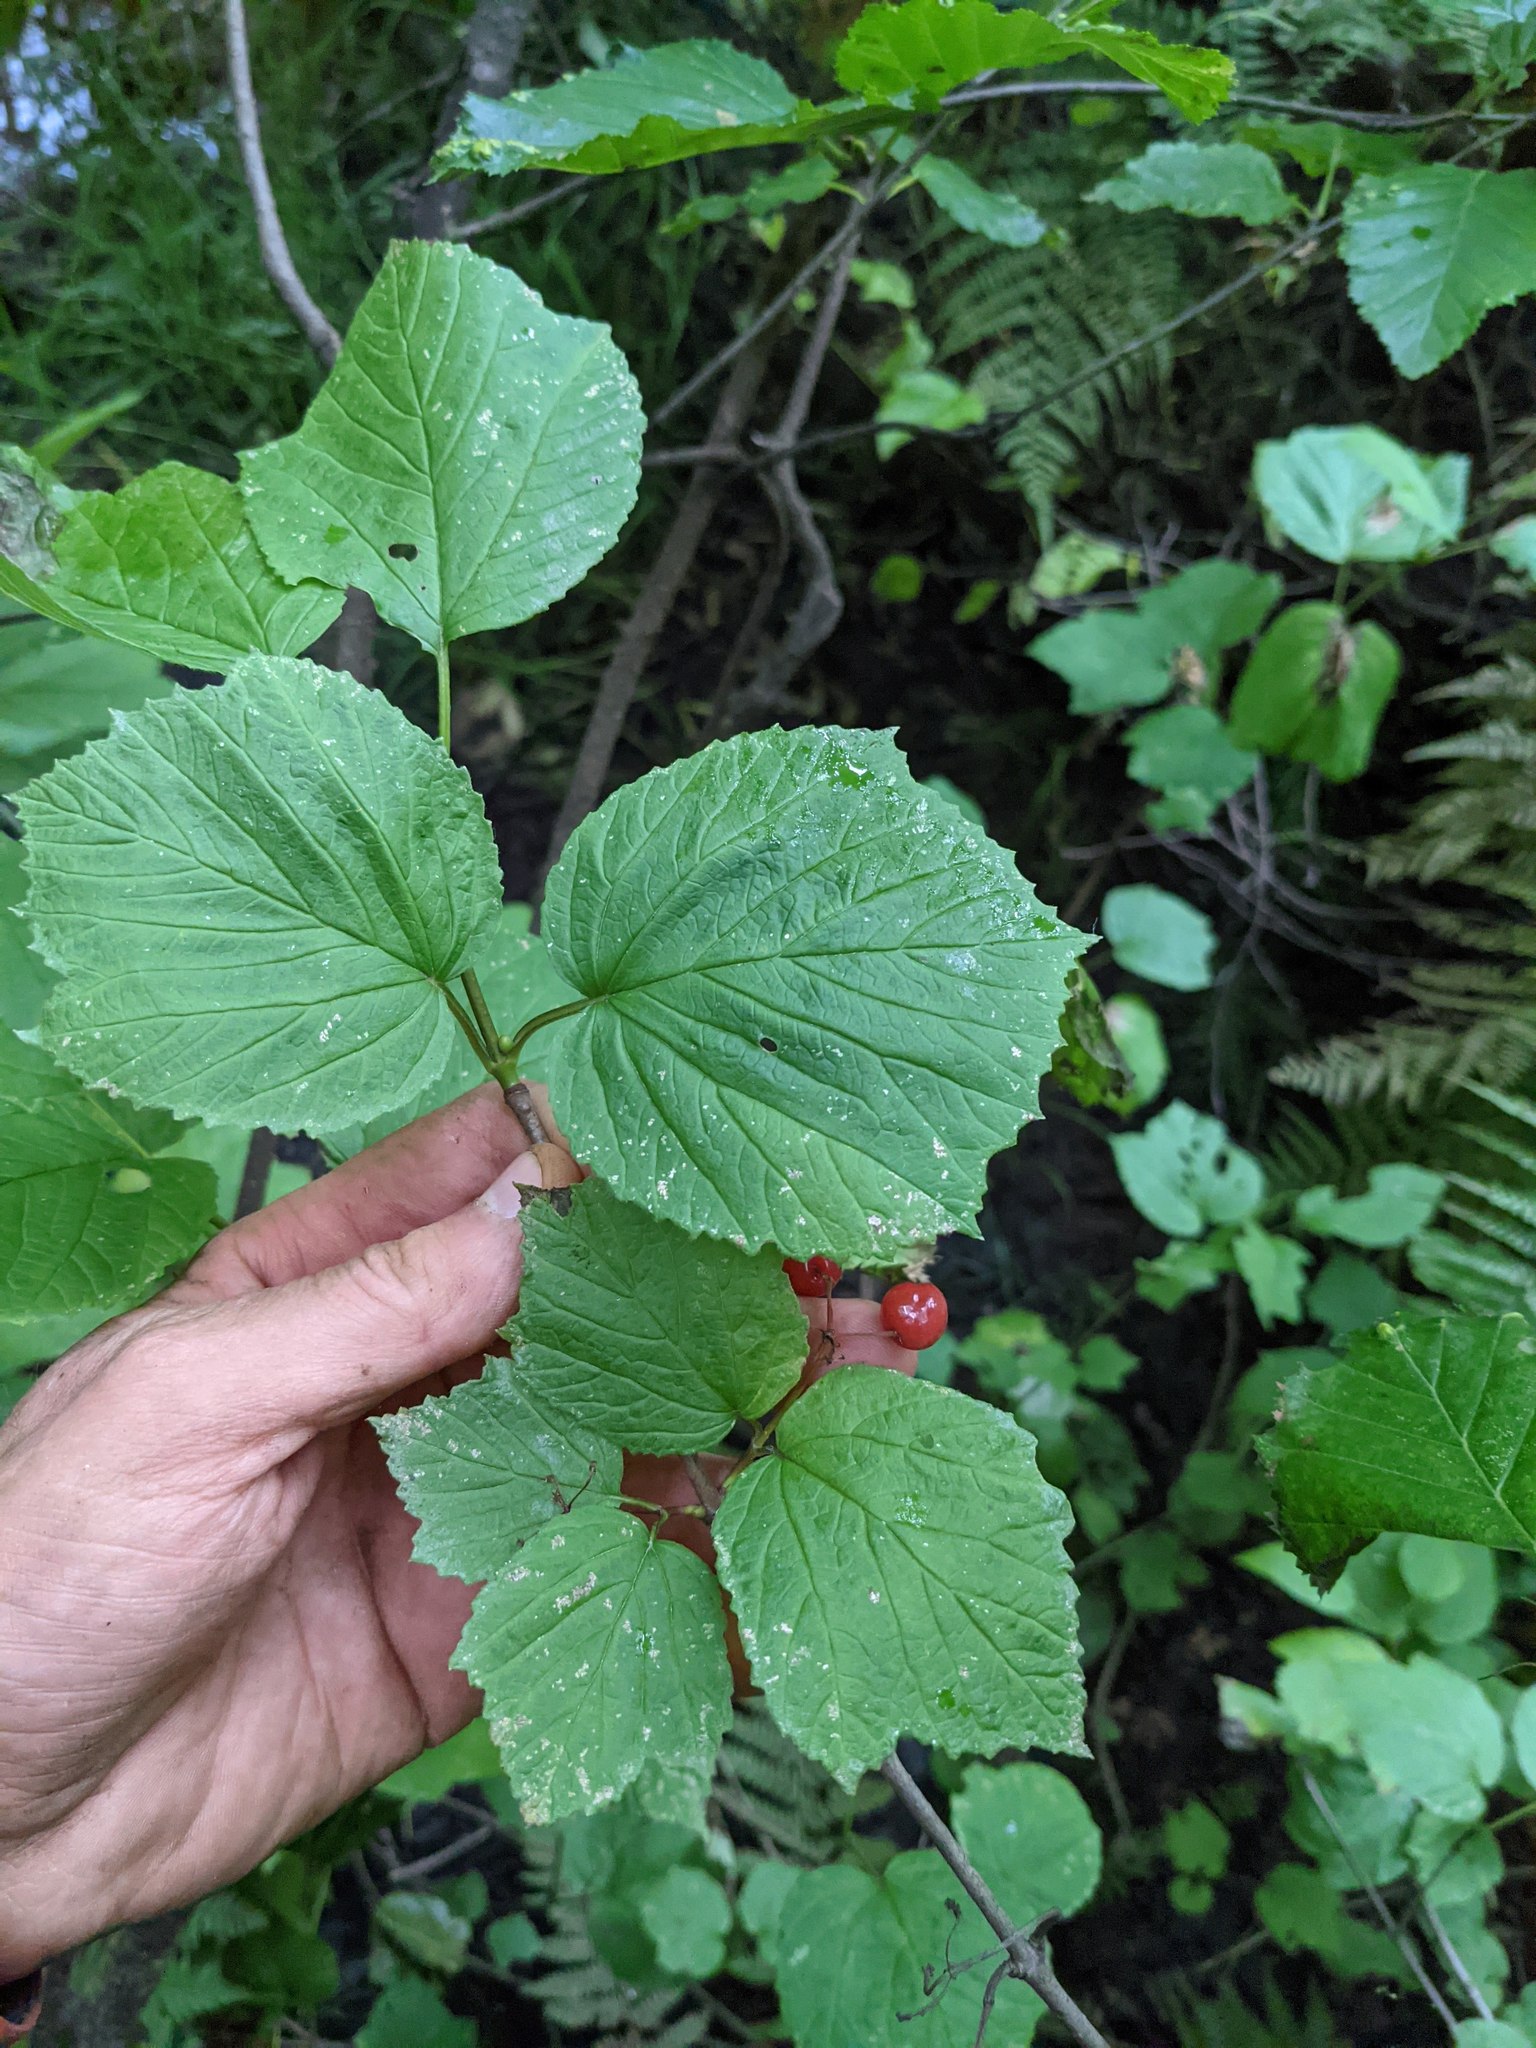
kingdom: Plantae
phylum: Tracheophyta
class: Magnoliopsida
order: Dipsacales
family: Viburnaceae
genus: Viburnum
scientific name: Viburnum edule
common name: Mooseberry
